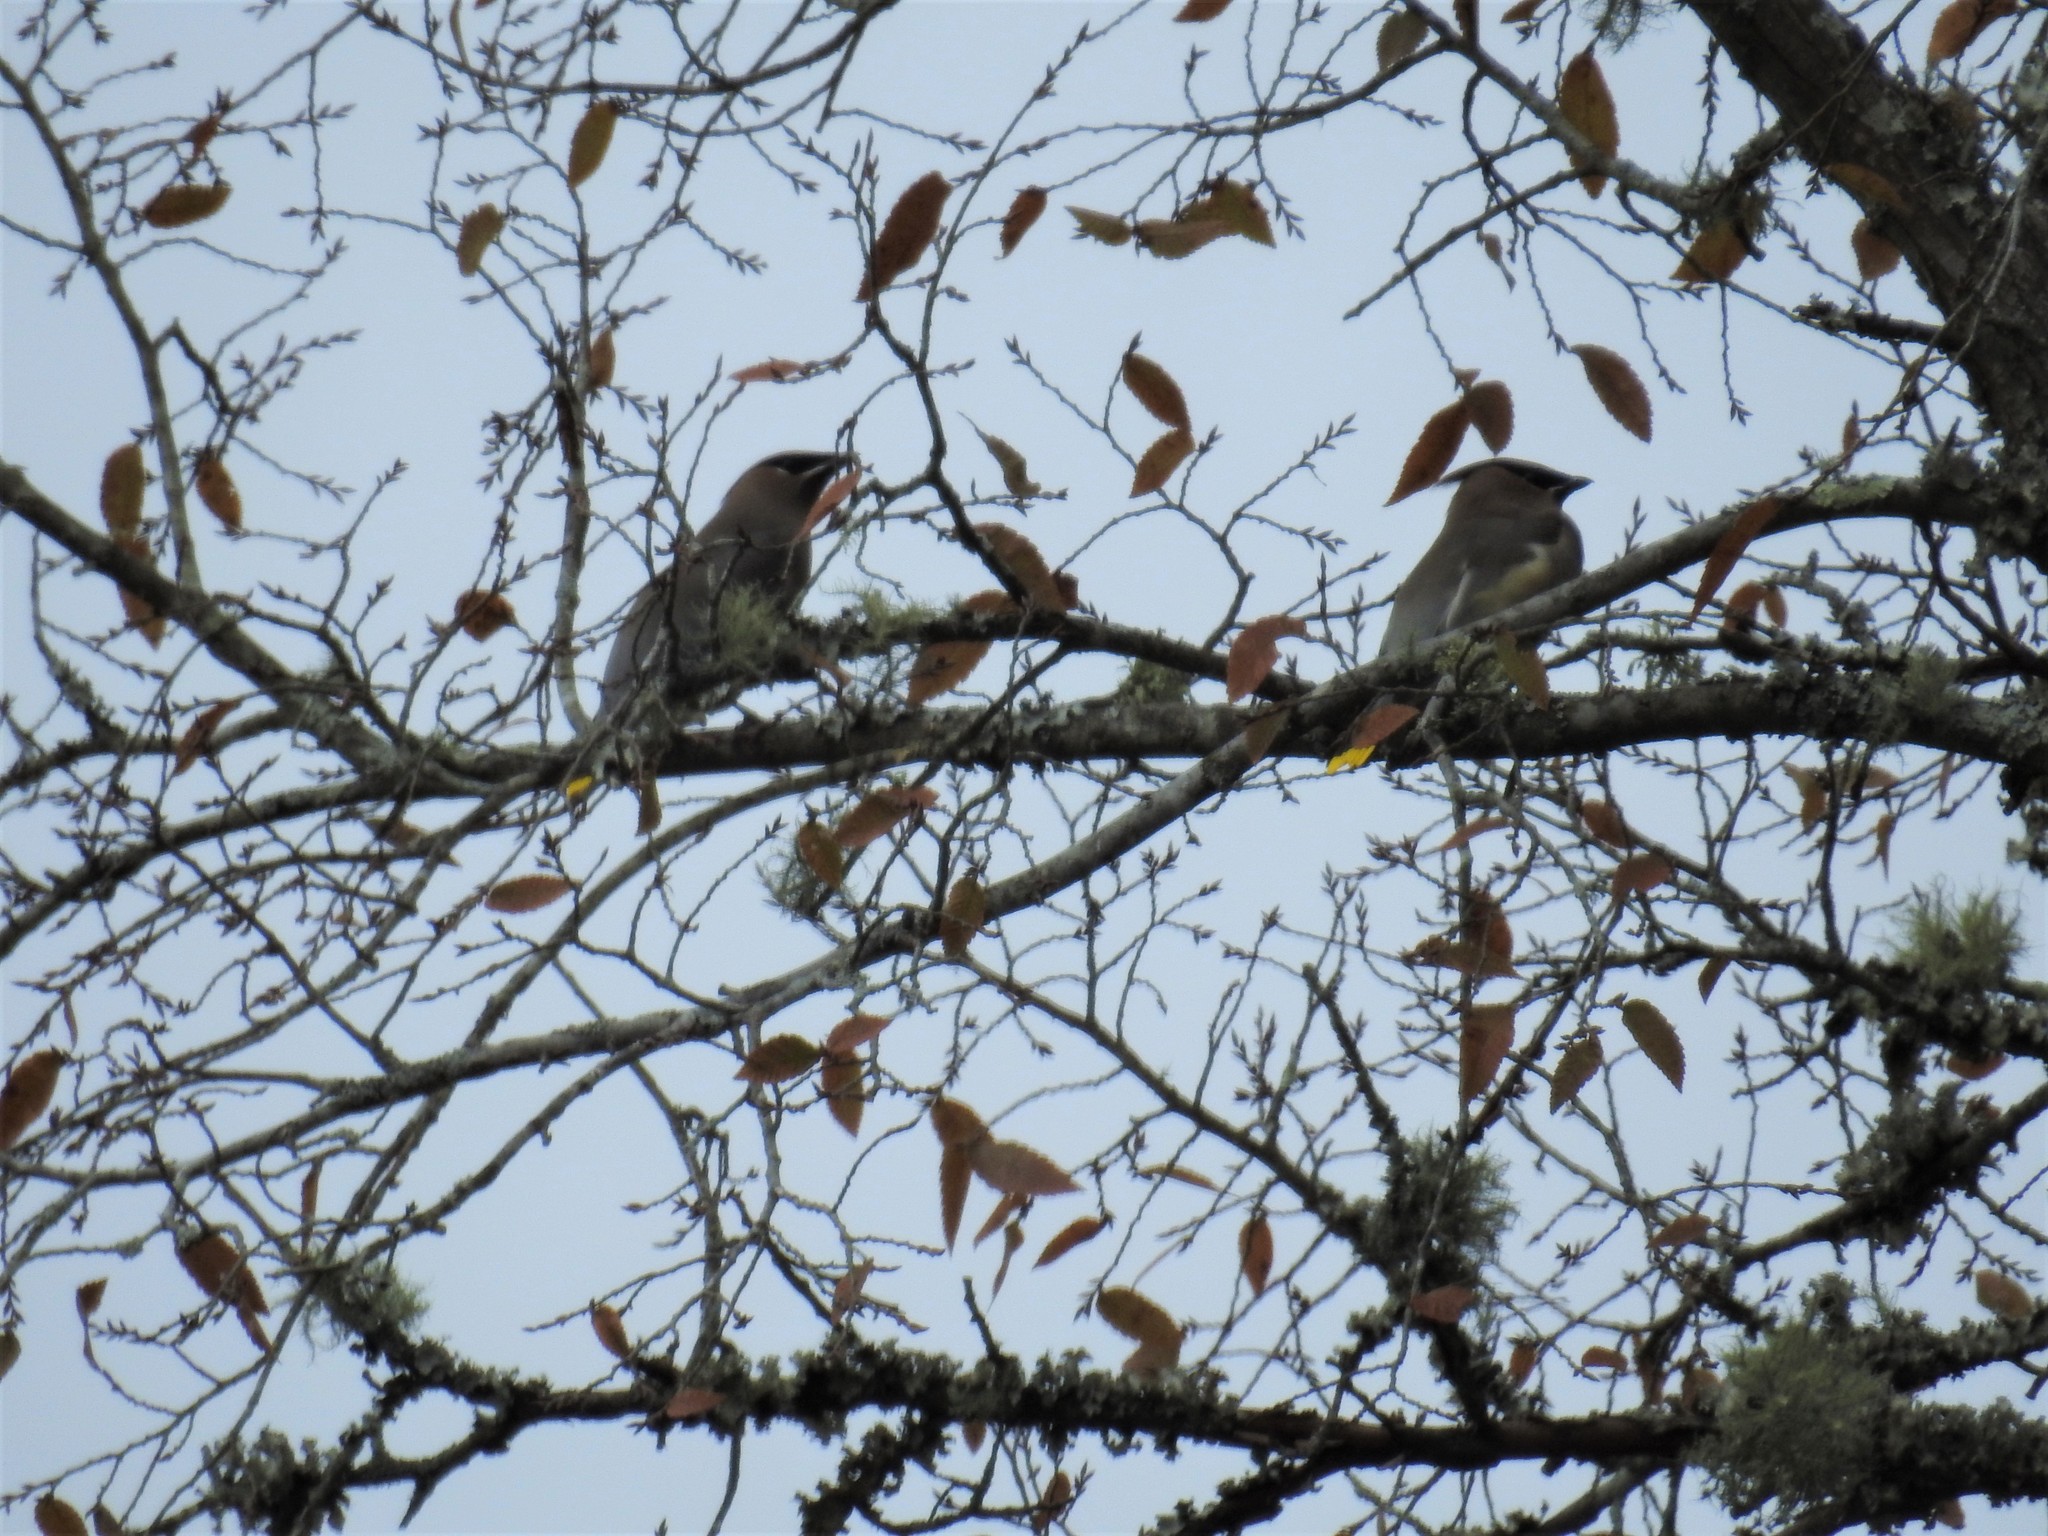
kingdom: Animalia
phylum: Chordata
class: Aves
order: Passeriformes
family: Bombycillidae
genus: Bombycilla
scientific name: Bombycilla cedrorum
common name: Cedar waxwing
